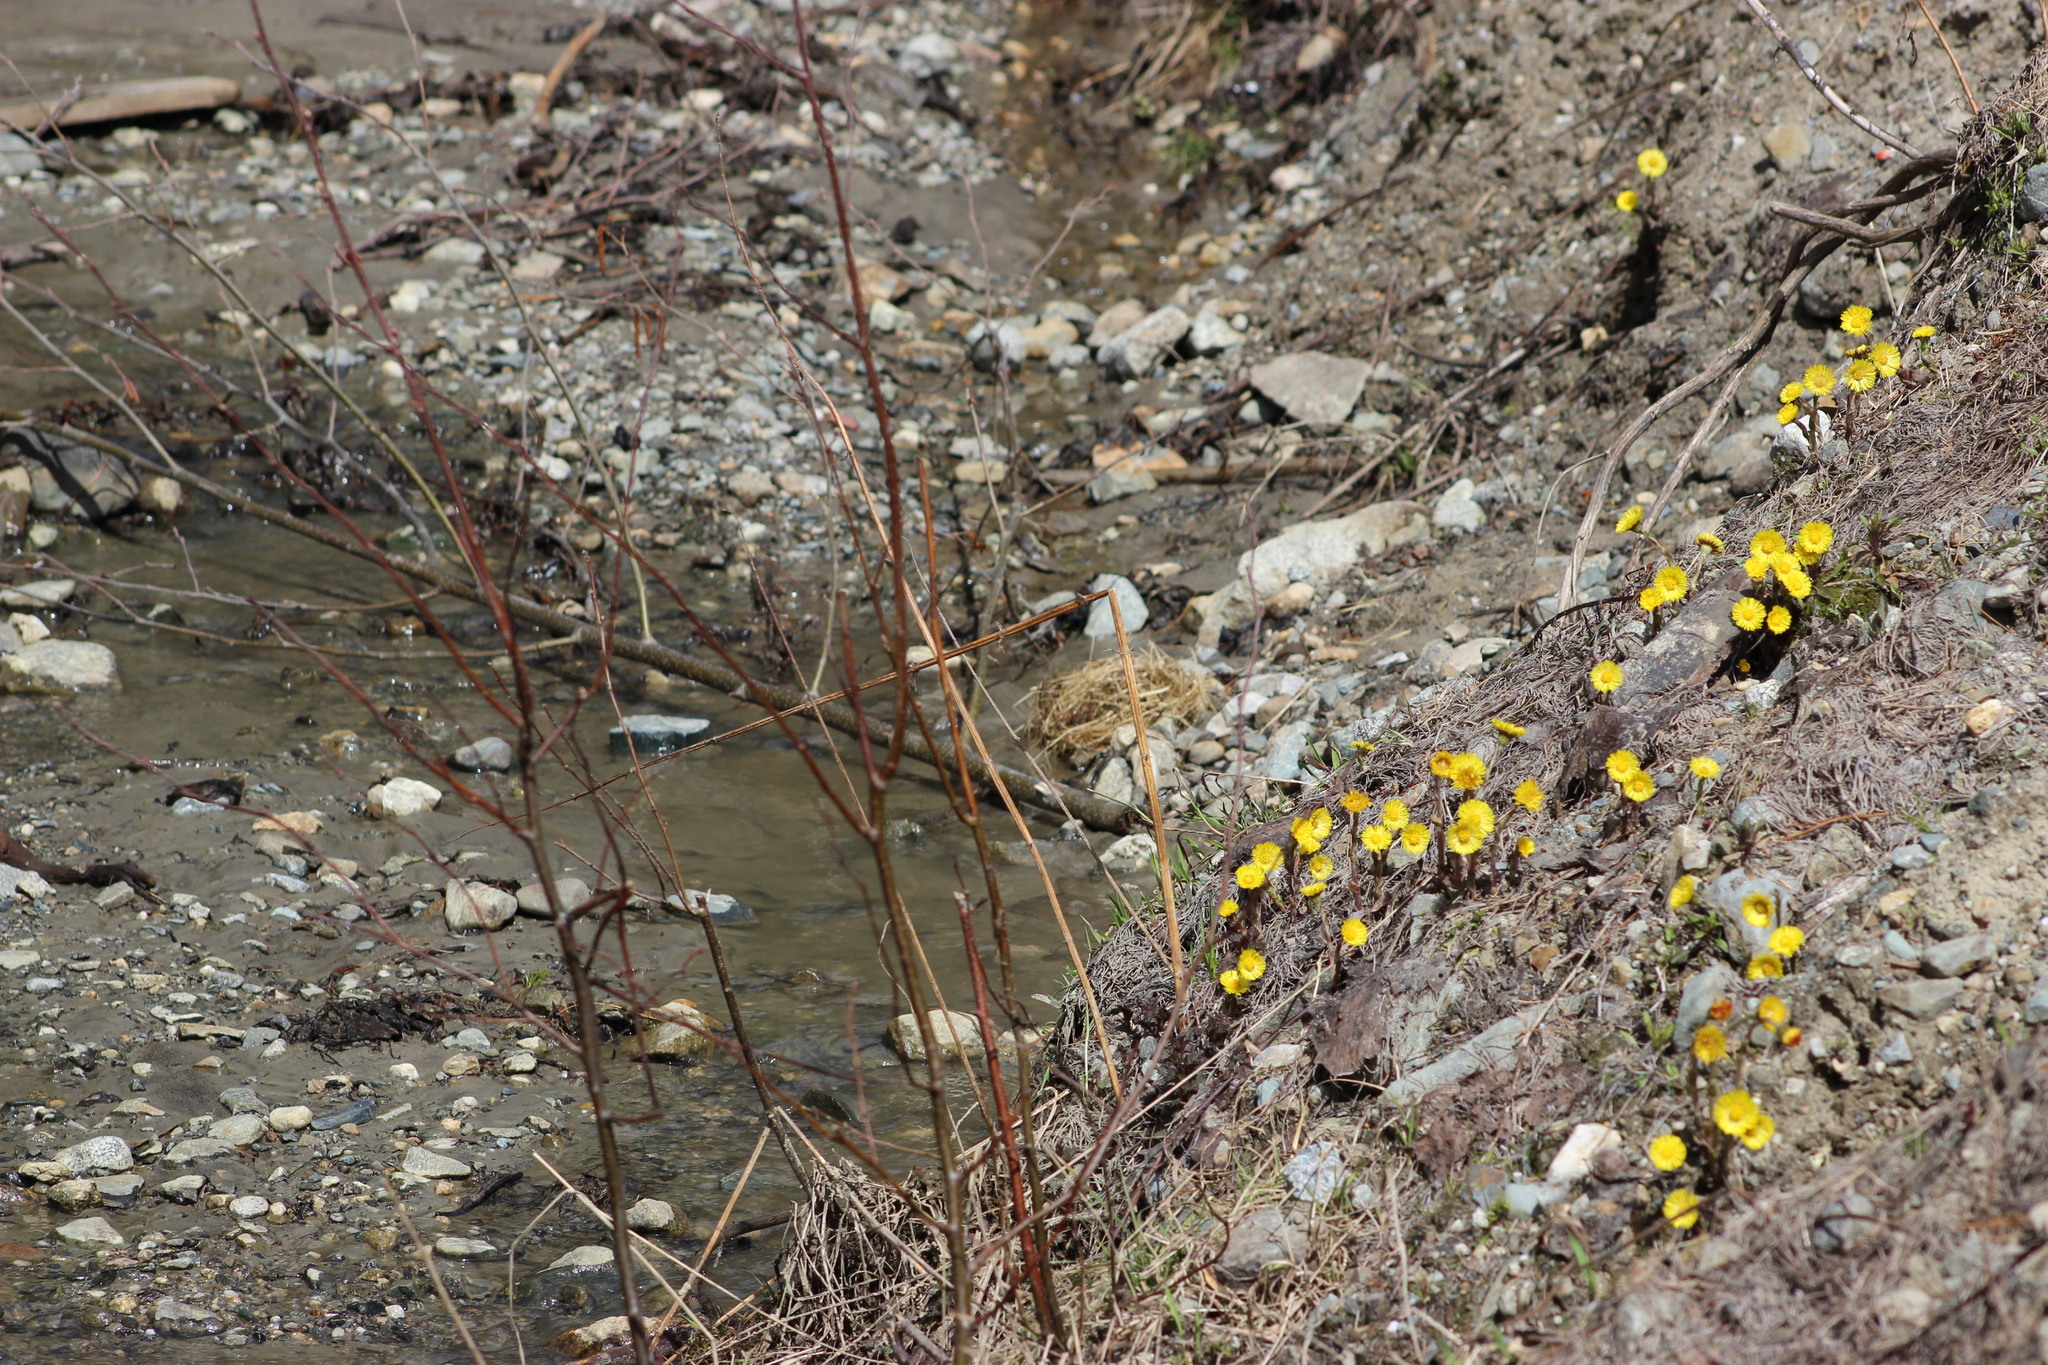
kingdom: Plantae
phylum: Tracheophyta
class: Magnoliopsida
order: Asterales
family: Asteraceae
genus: Tussilago
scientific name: Tussilago farfara
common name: Coltsfoot
